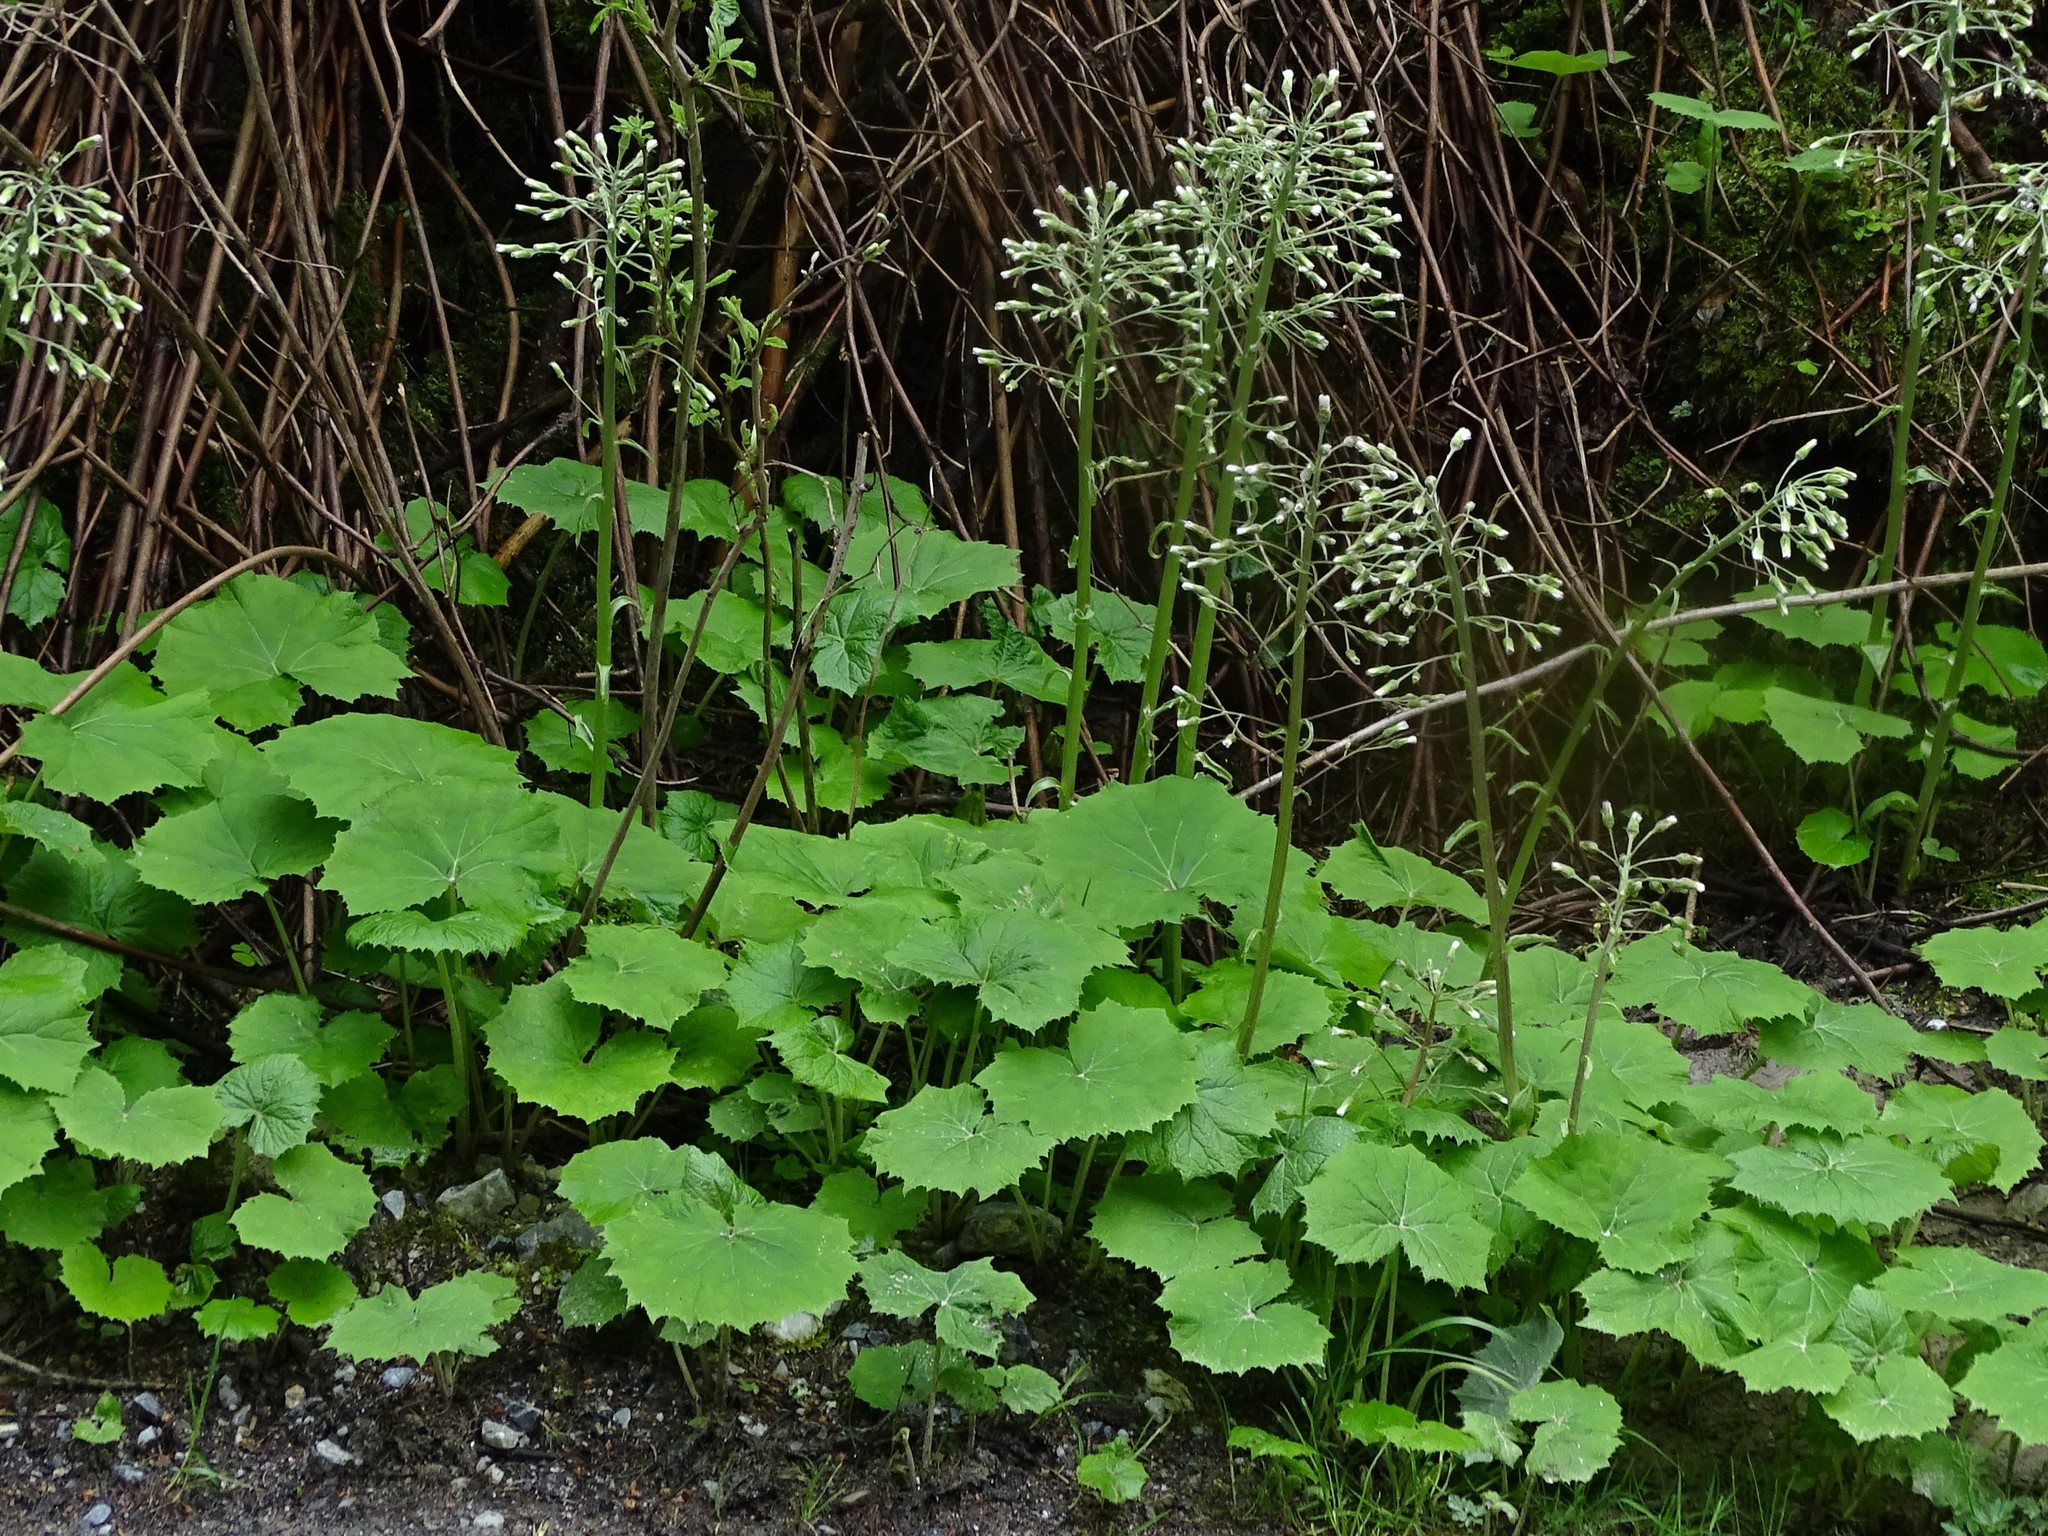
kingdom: Plantae
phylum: Tracheophyta
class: Magnoliopsida
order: Asterales
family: Asteraceae
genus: Petasites
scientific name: Petasites albus
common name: White butterbur
